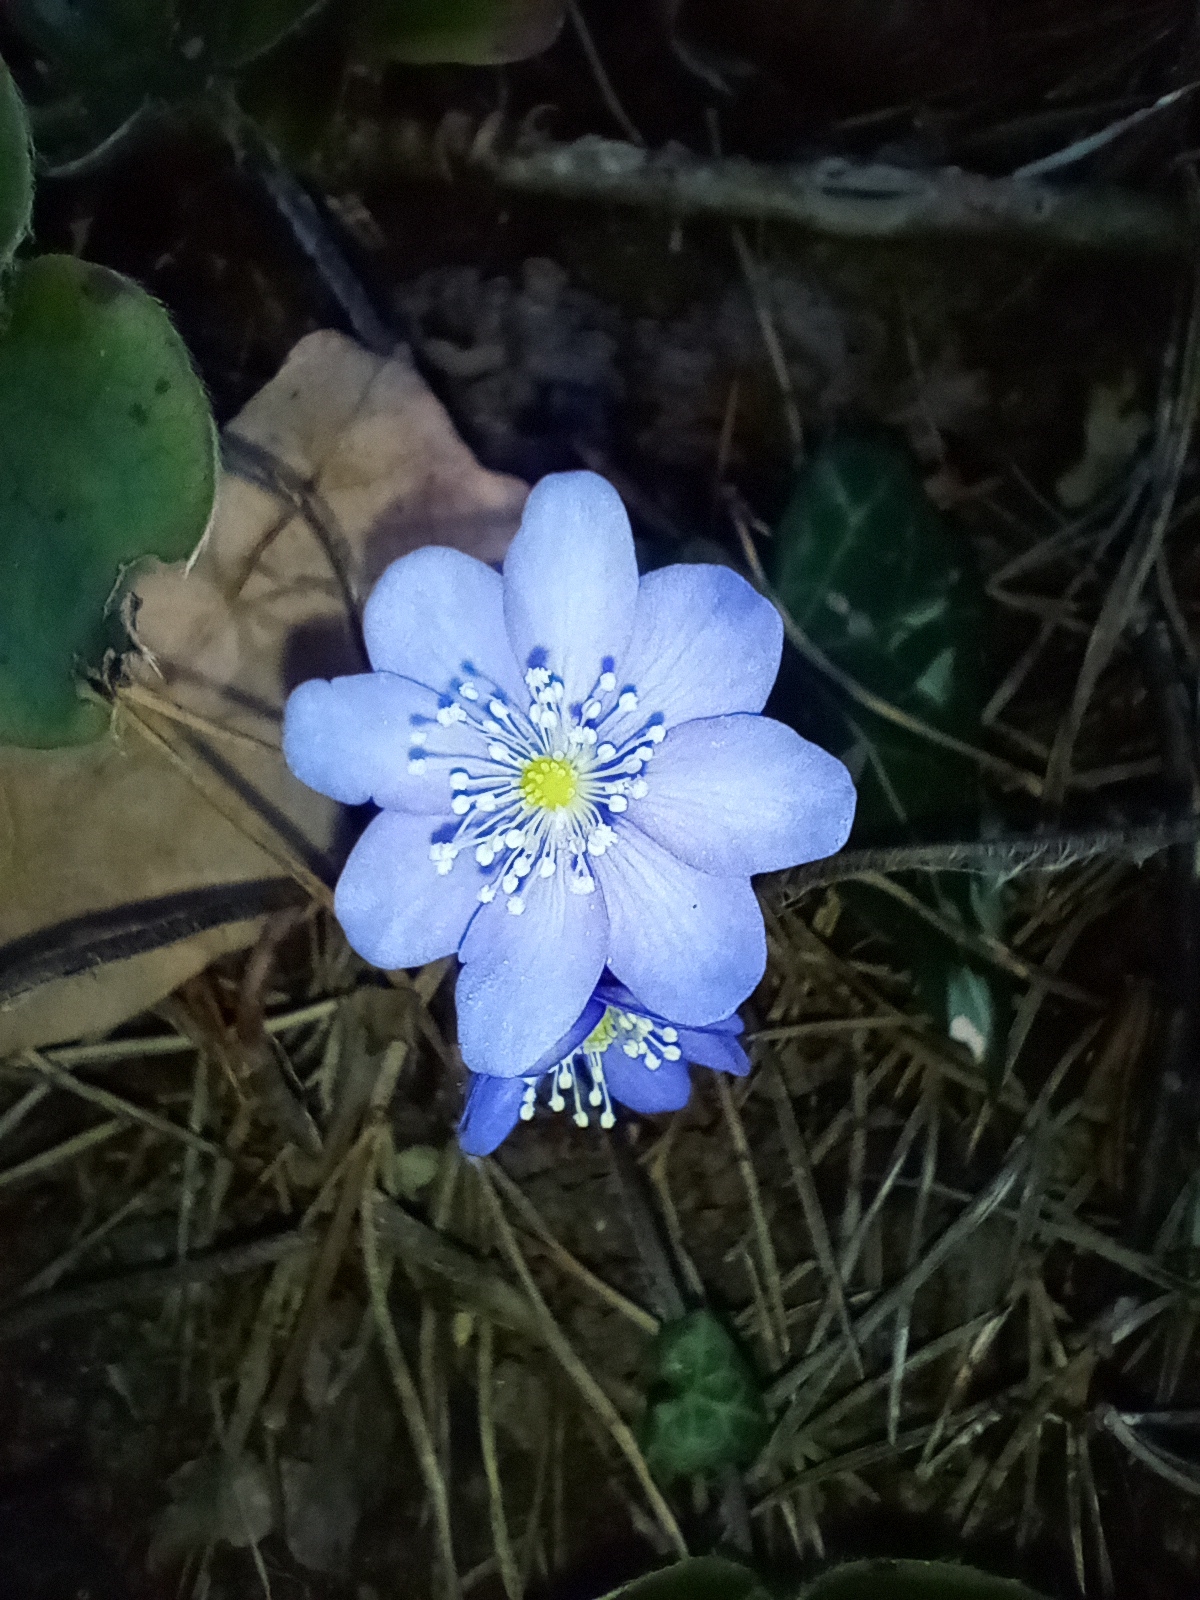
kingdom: Plantae
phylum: Tracheophyta
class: Magnoliopsida
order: Ranunculales
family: Ranunculaceae
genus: Hepatica
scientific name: Hepatica nobilis
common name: Liverleaf
